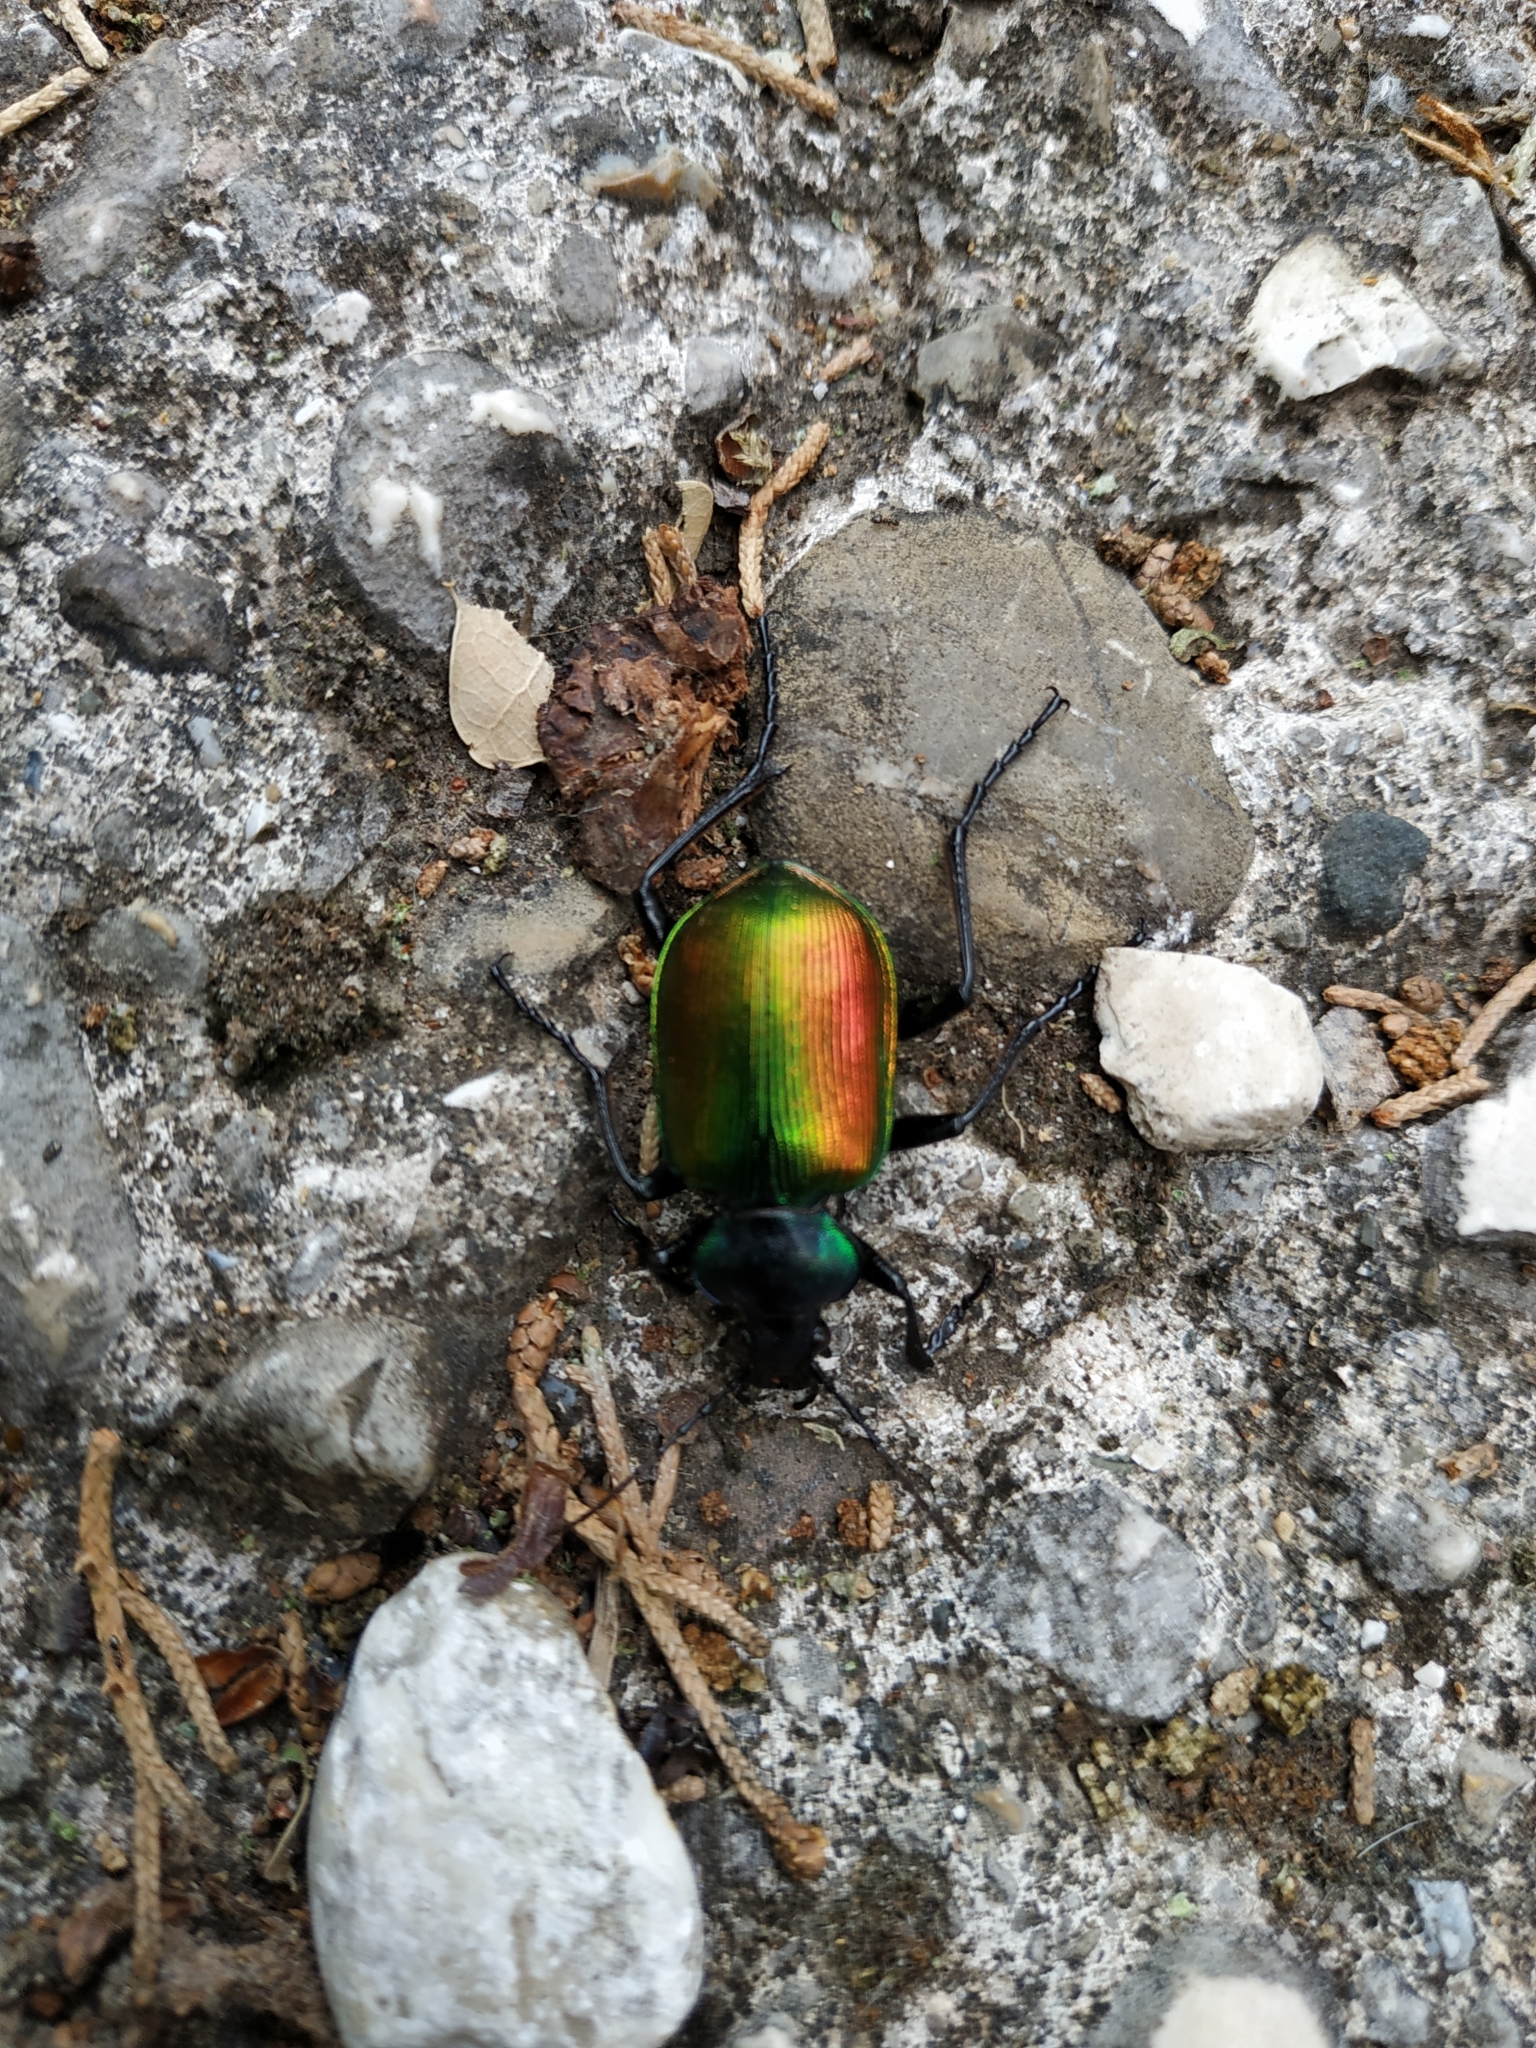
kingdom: Animalia
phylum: Arthropoda
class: Insecta
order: Coleoptera
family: Carabidae
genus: Calosoma
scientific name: Calosoma sycophanta
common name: Forest caterpillar hunter
